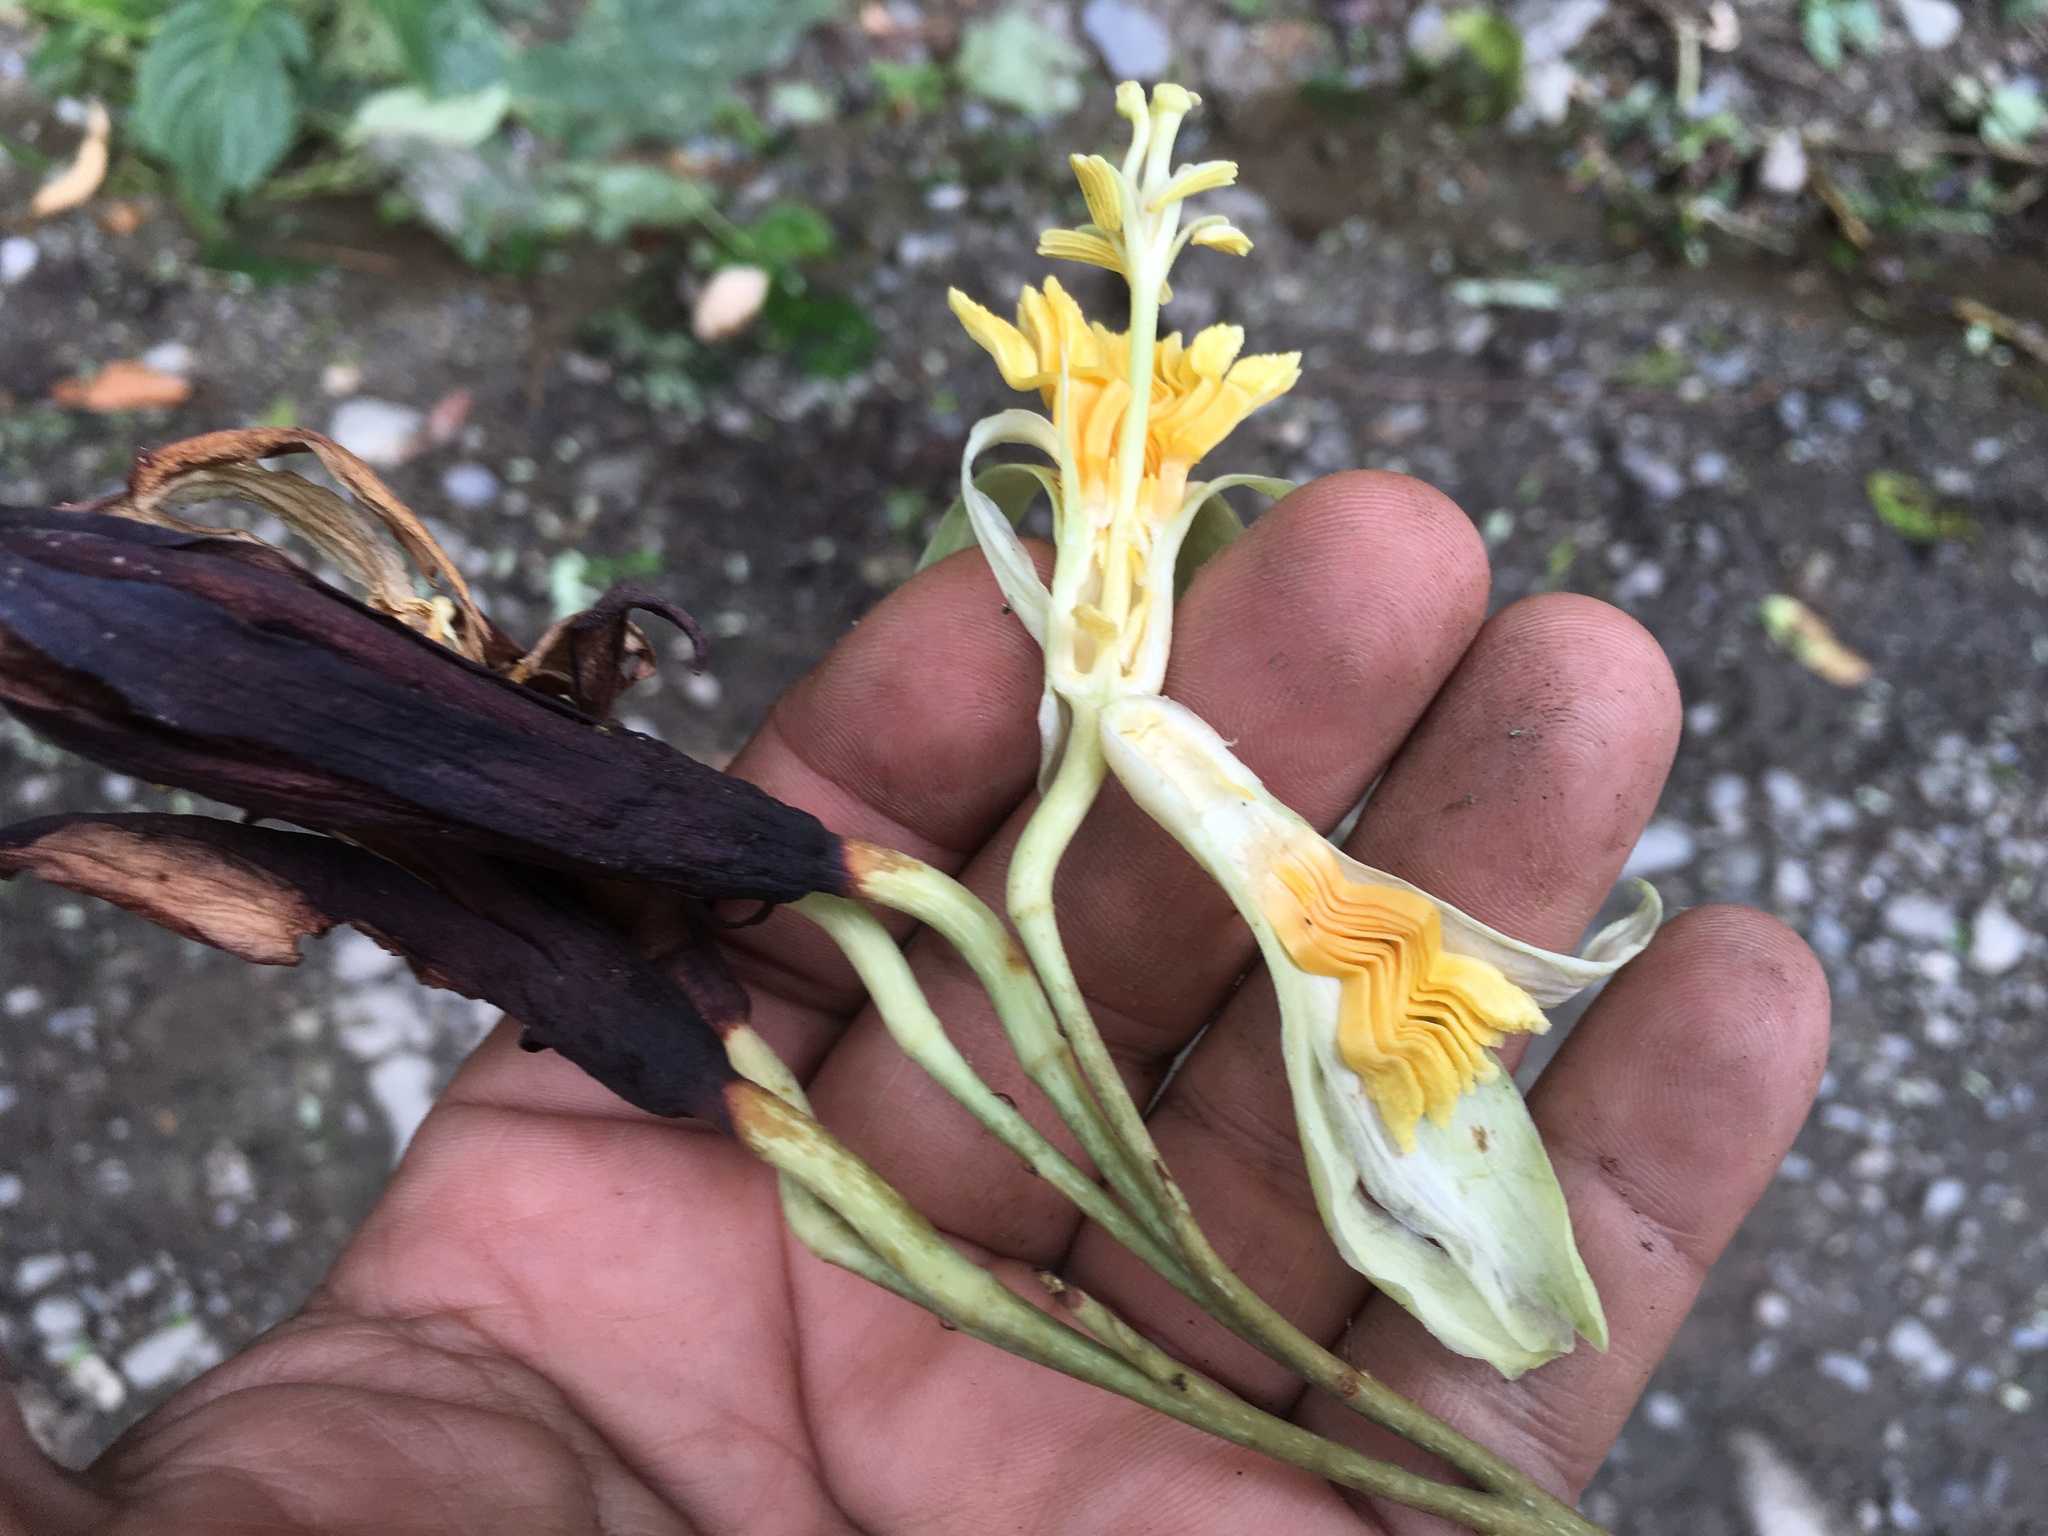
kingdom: Plantae
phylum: Tracheophyta
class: Magnoliopsida
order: Malpighiales
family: Passifloraceae
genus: Passiflora
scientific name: Passiflora macrophylla
